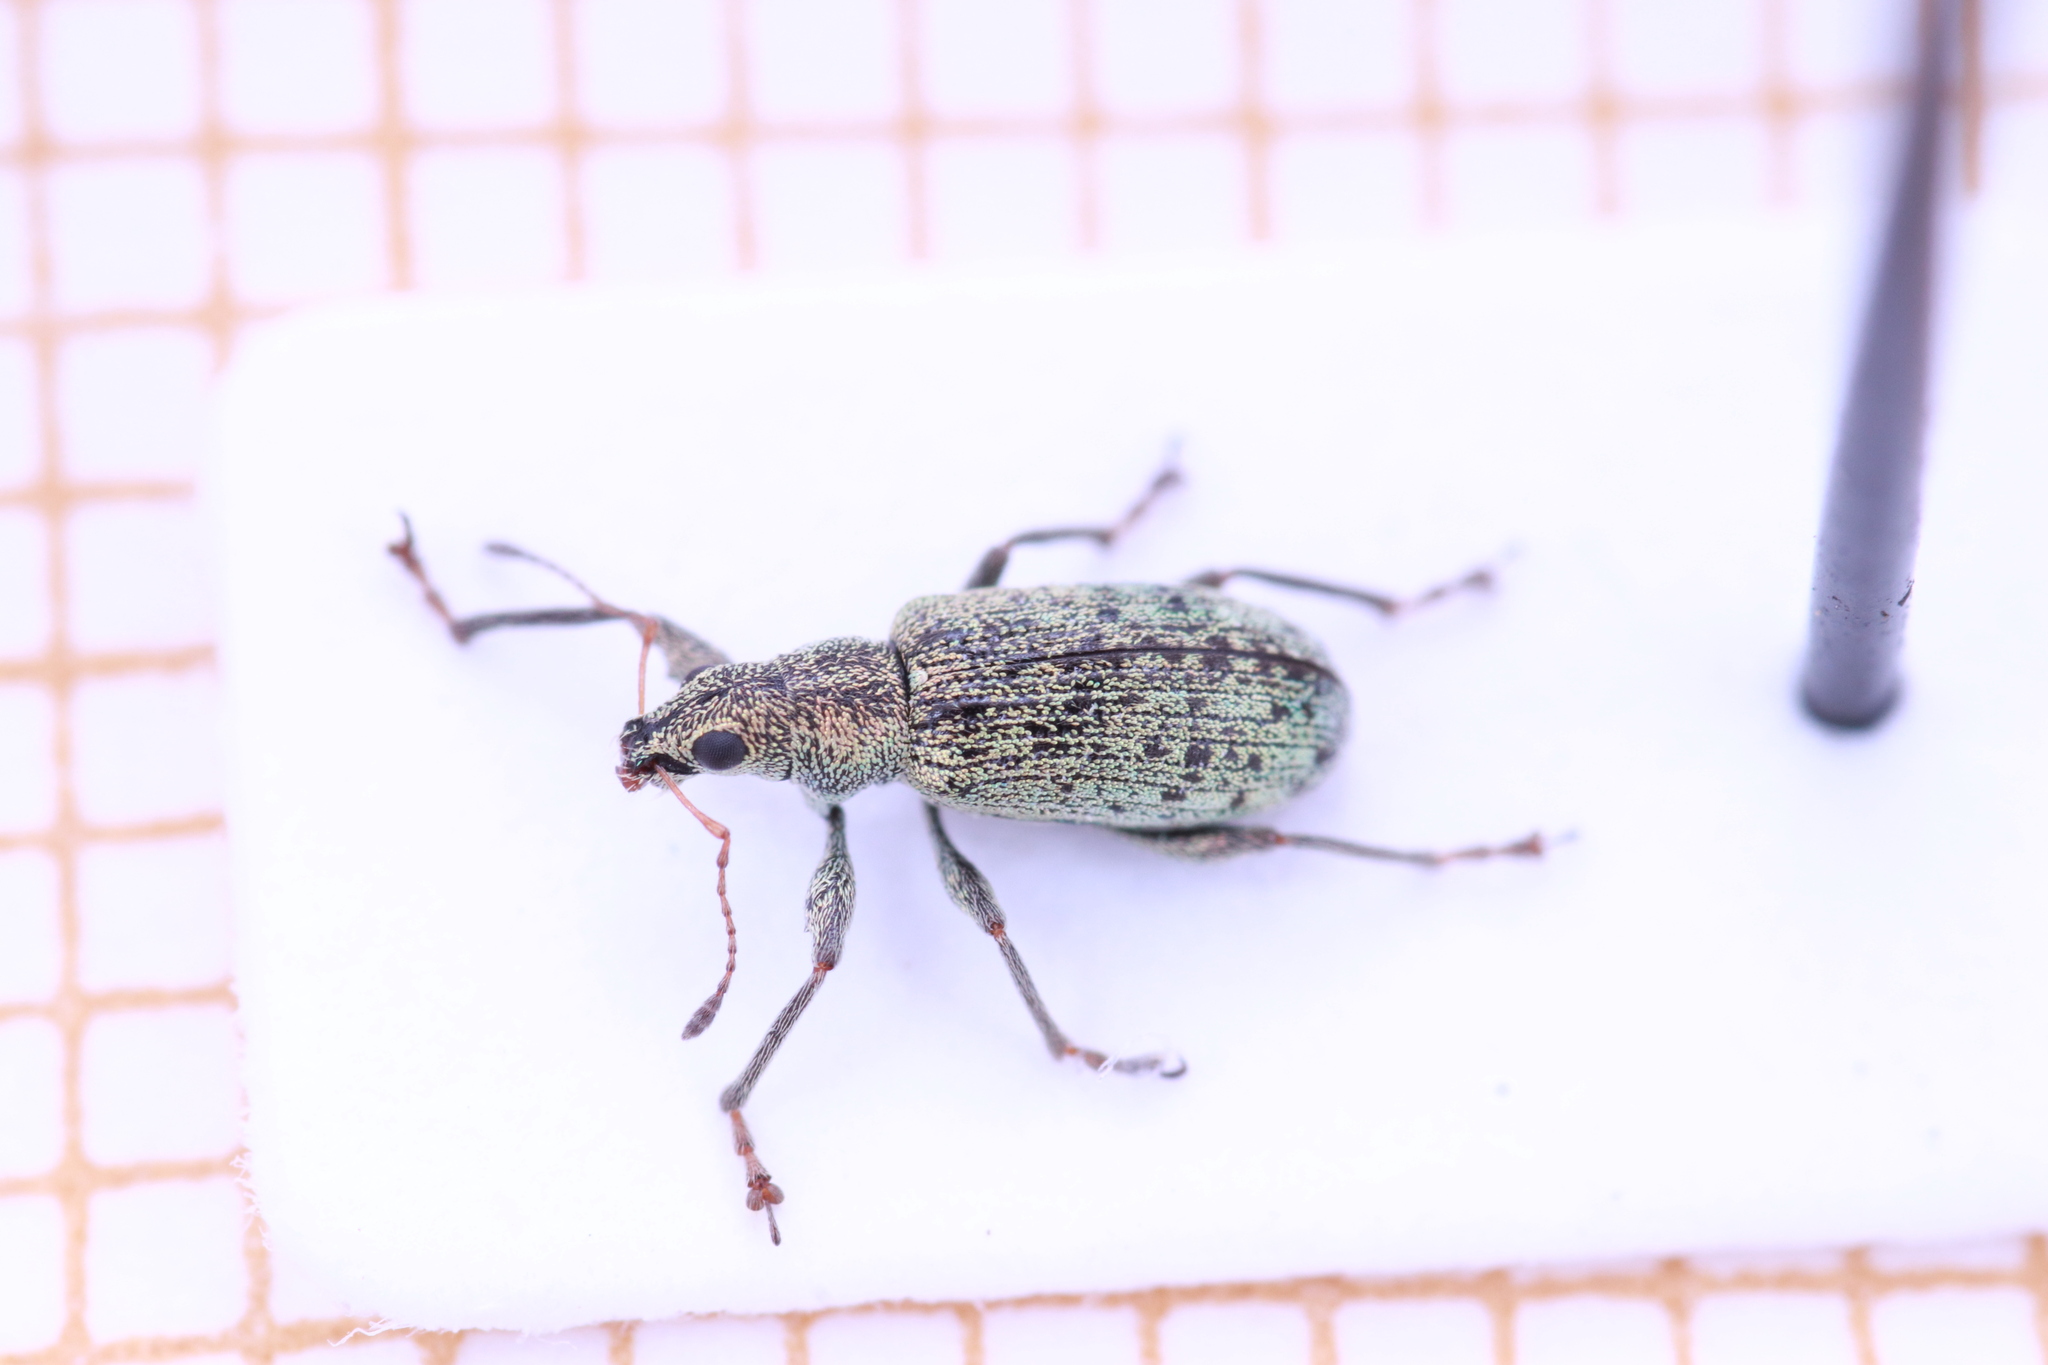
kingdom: Animalia
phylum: Arthropoda
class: Insecta
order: Coleoptera
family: Curculionidae
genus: Polydrusus
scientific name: Polydrusus cervinus
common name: Weevil
